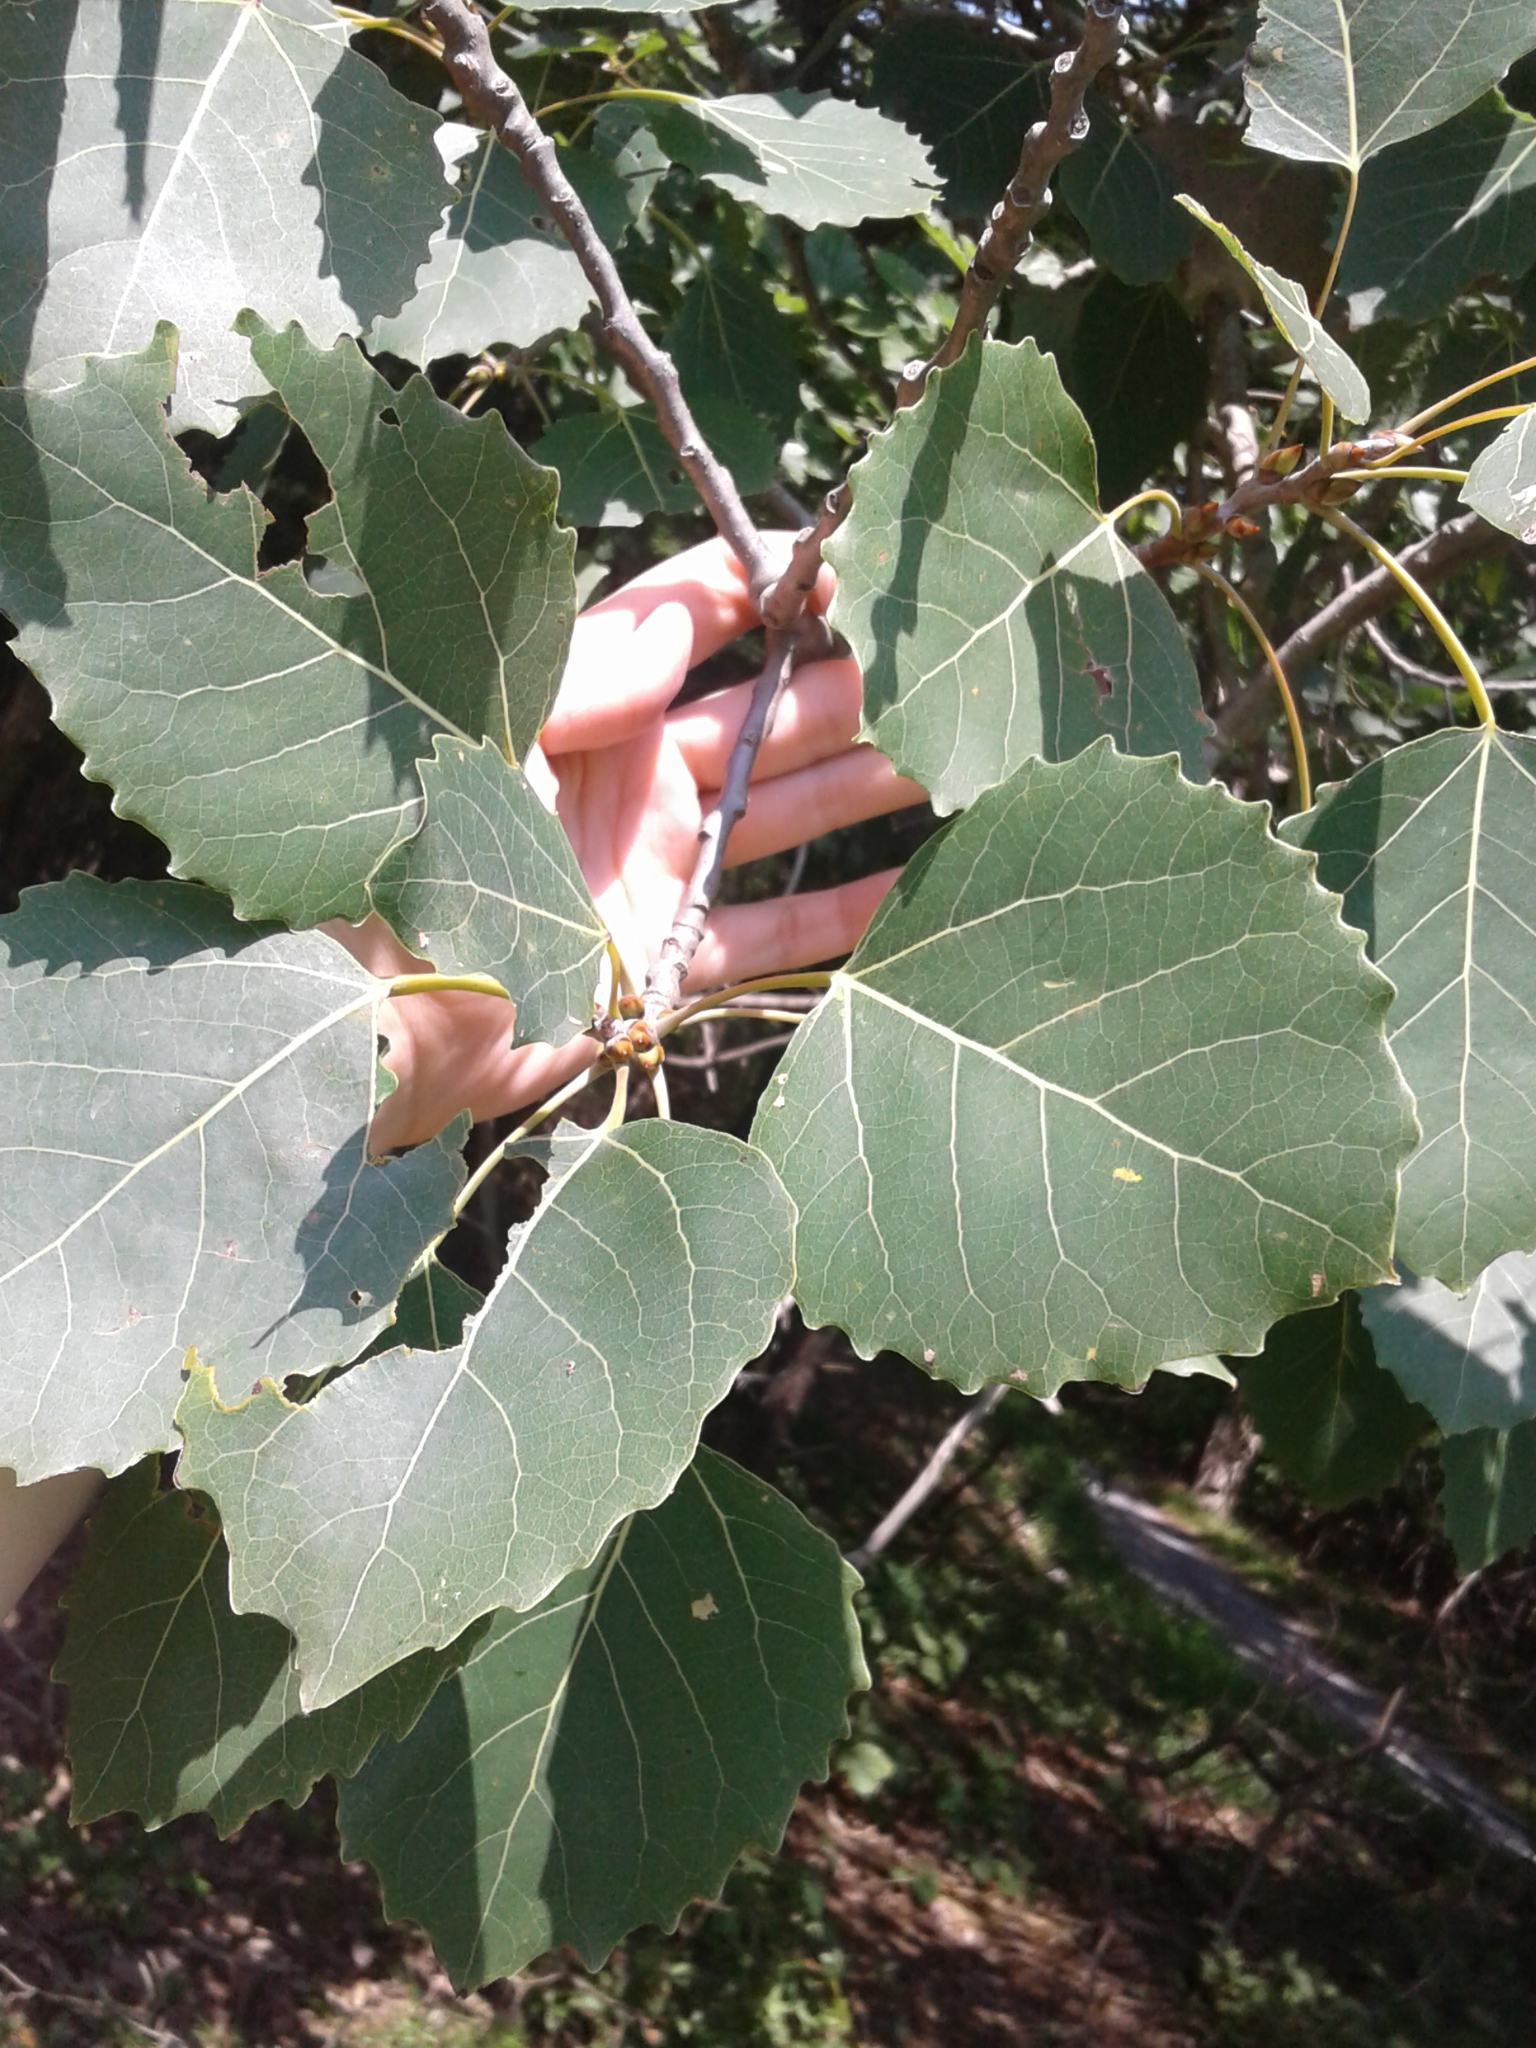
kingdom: Plantae
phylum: Tracheophyta
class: Magnoliopsida
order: Malpighiales
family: Salicaceae
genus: Populus
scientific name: Populus grandidentata
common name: Bigtooth aspen
